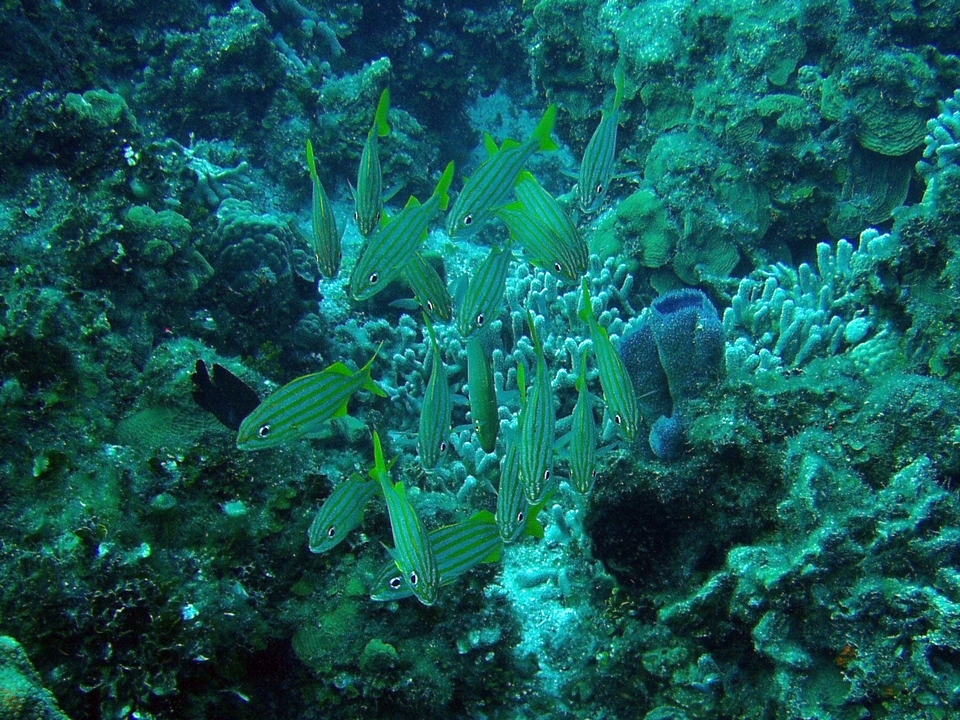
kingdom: Animalia
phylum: Chordata
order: Perciformes
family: Haemulidae
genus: Haemulon
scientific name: Haemulon chrysargyreum
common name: Smallmouth grunt
